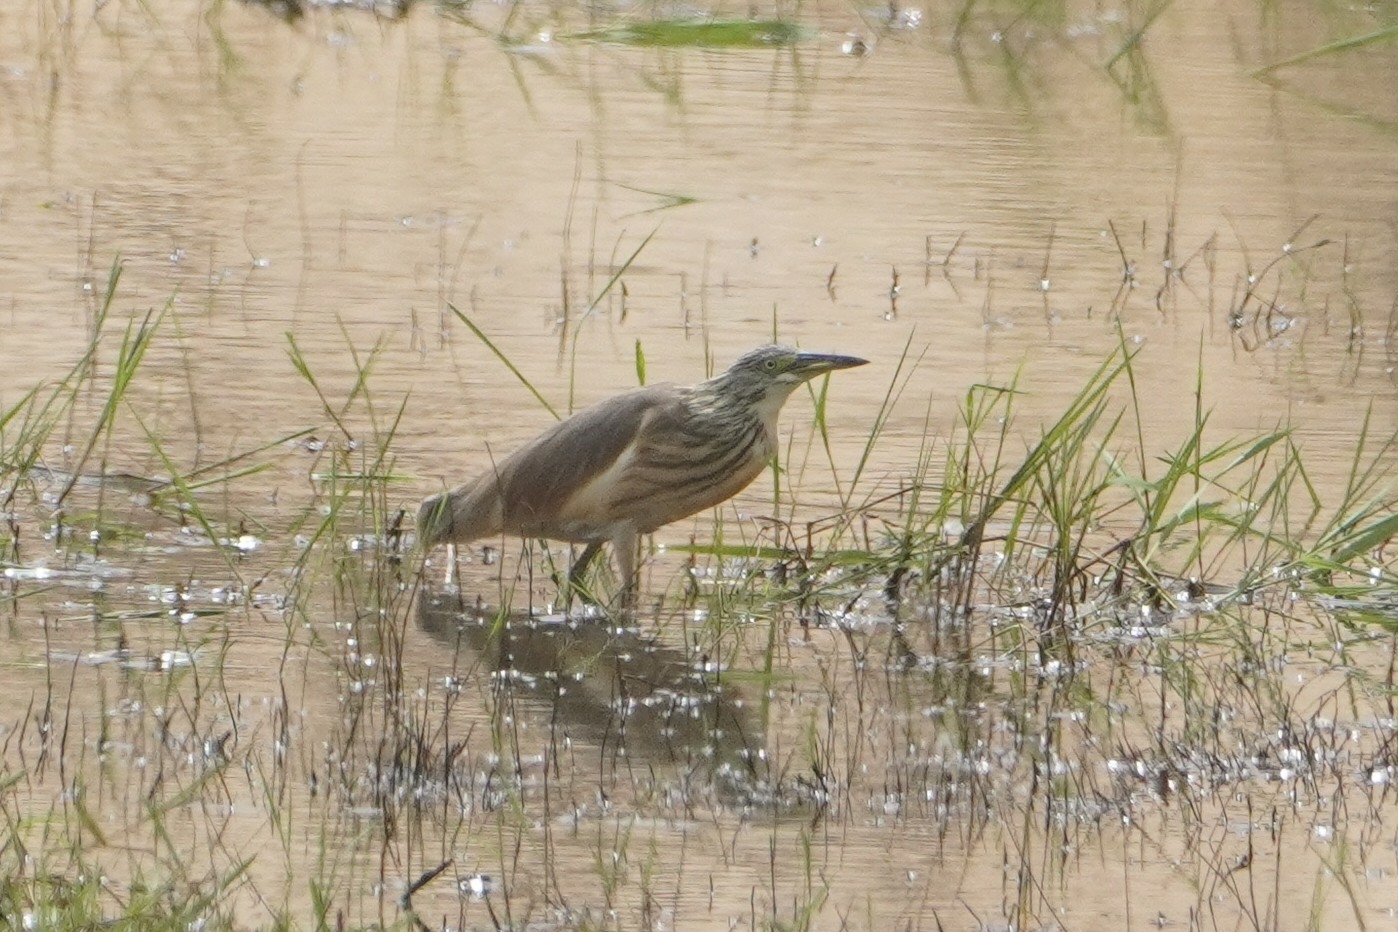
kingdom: Animalia
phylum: Chordata
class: Aves
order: Pelecaniformes
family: Ardeidae
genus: Ardeola
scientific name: Ardeola ralloides
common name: Squacco heron
